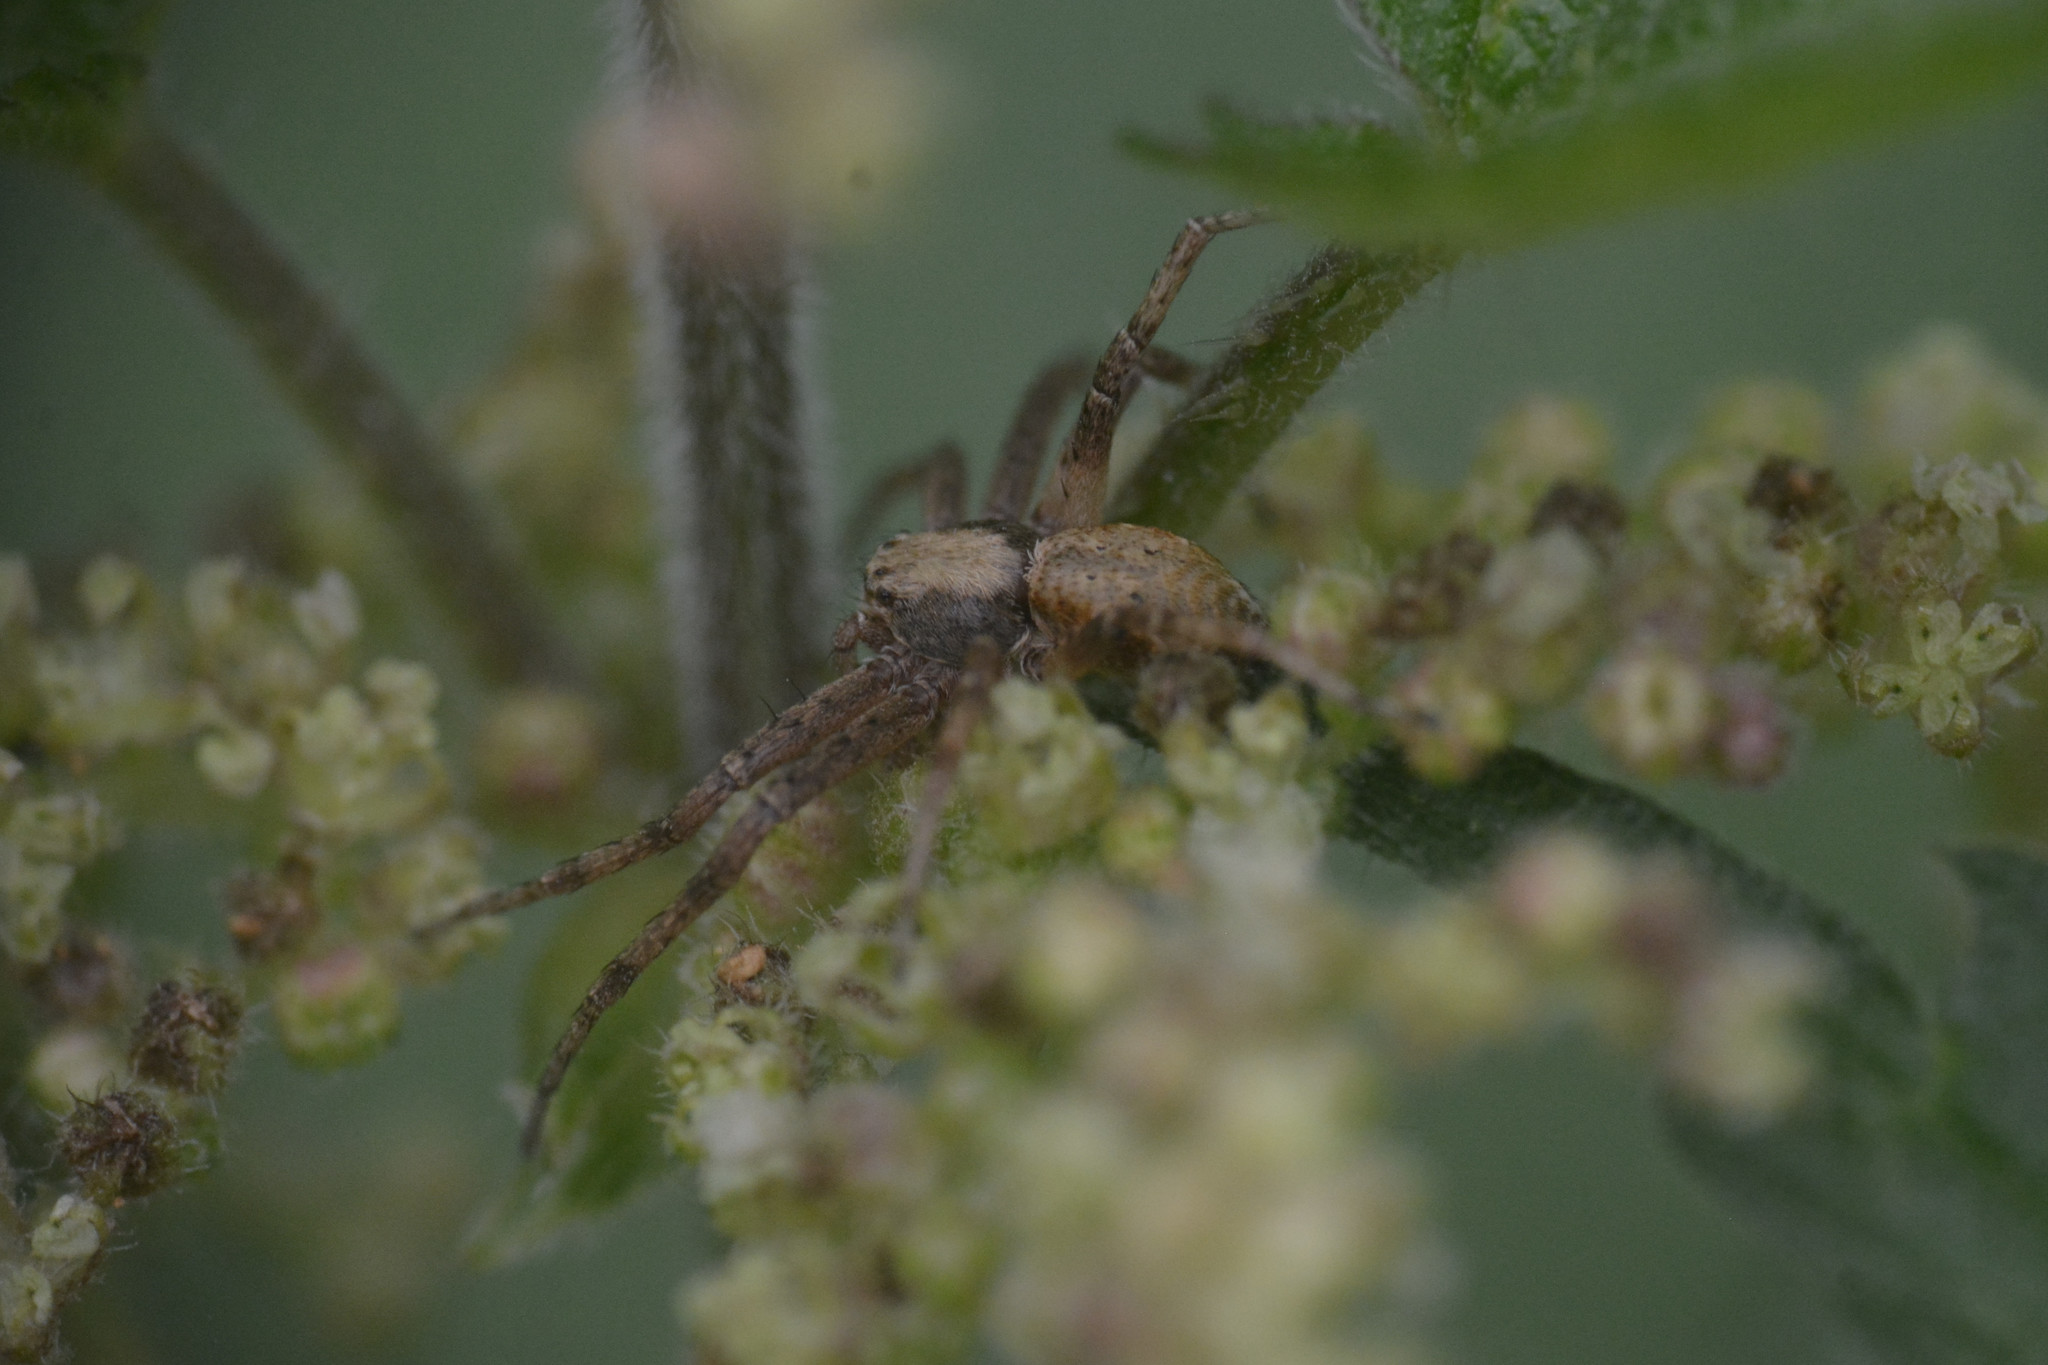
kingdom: Animalia
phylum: Arthropoda
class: Arachnida
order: Araneae
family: Philodromidae
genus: Philodromus
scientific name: Philodromus
